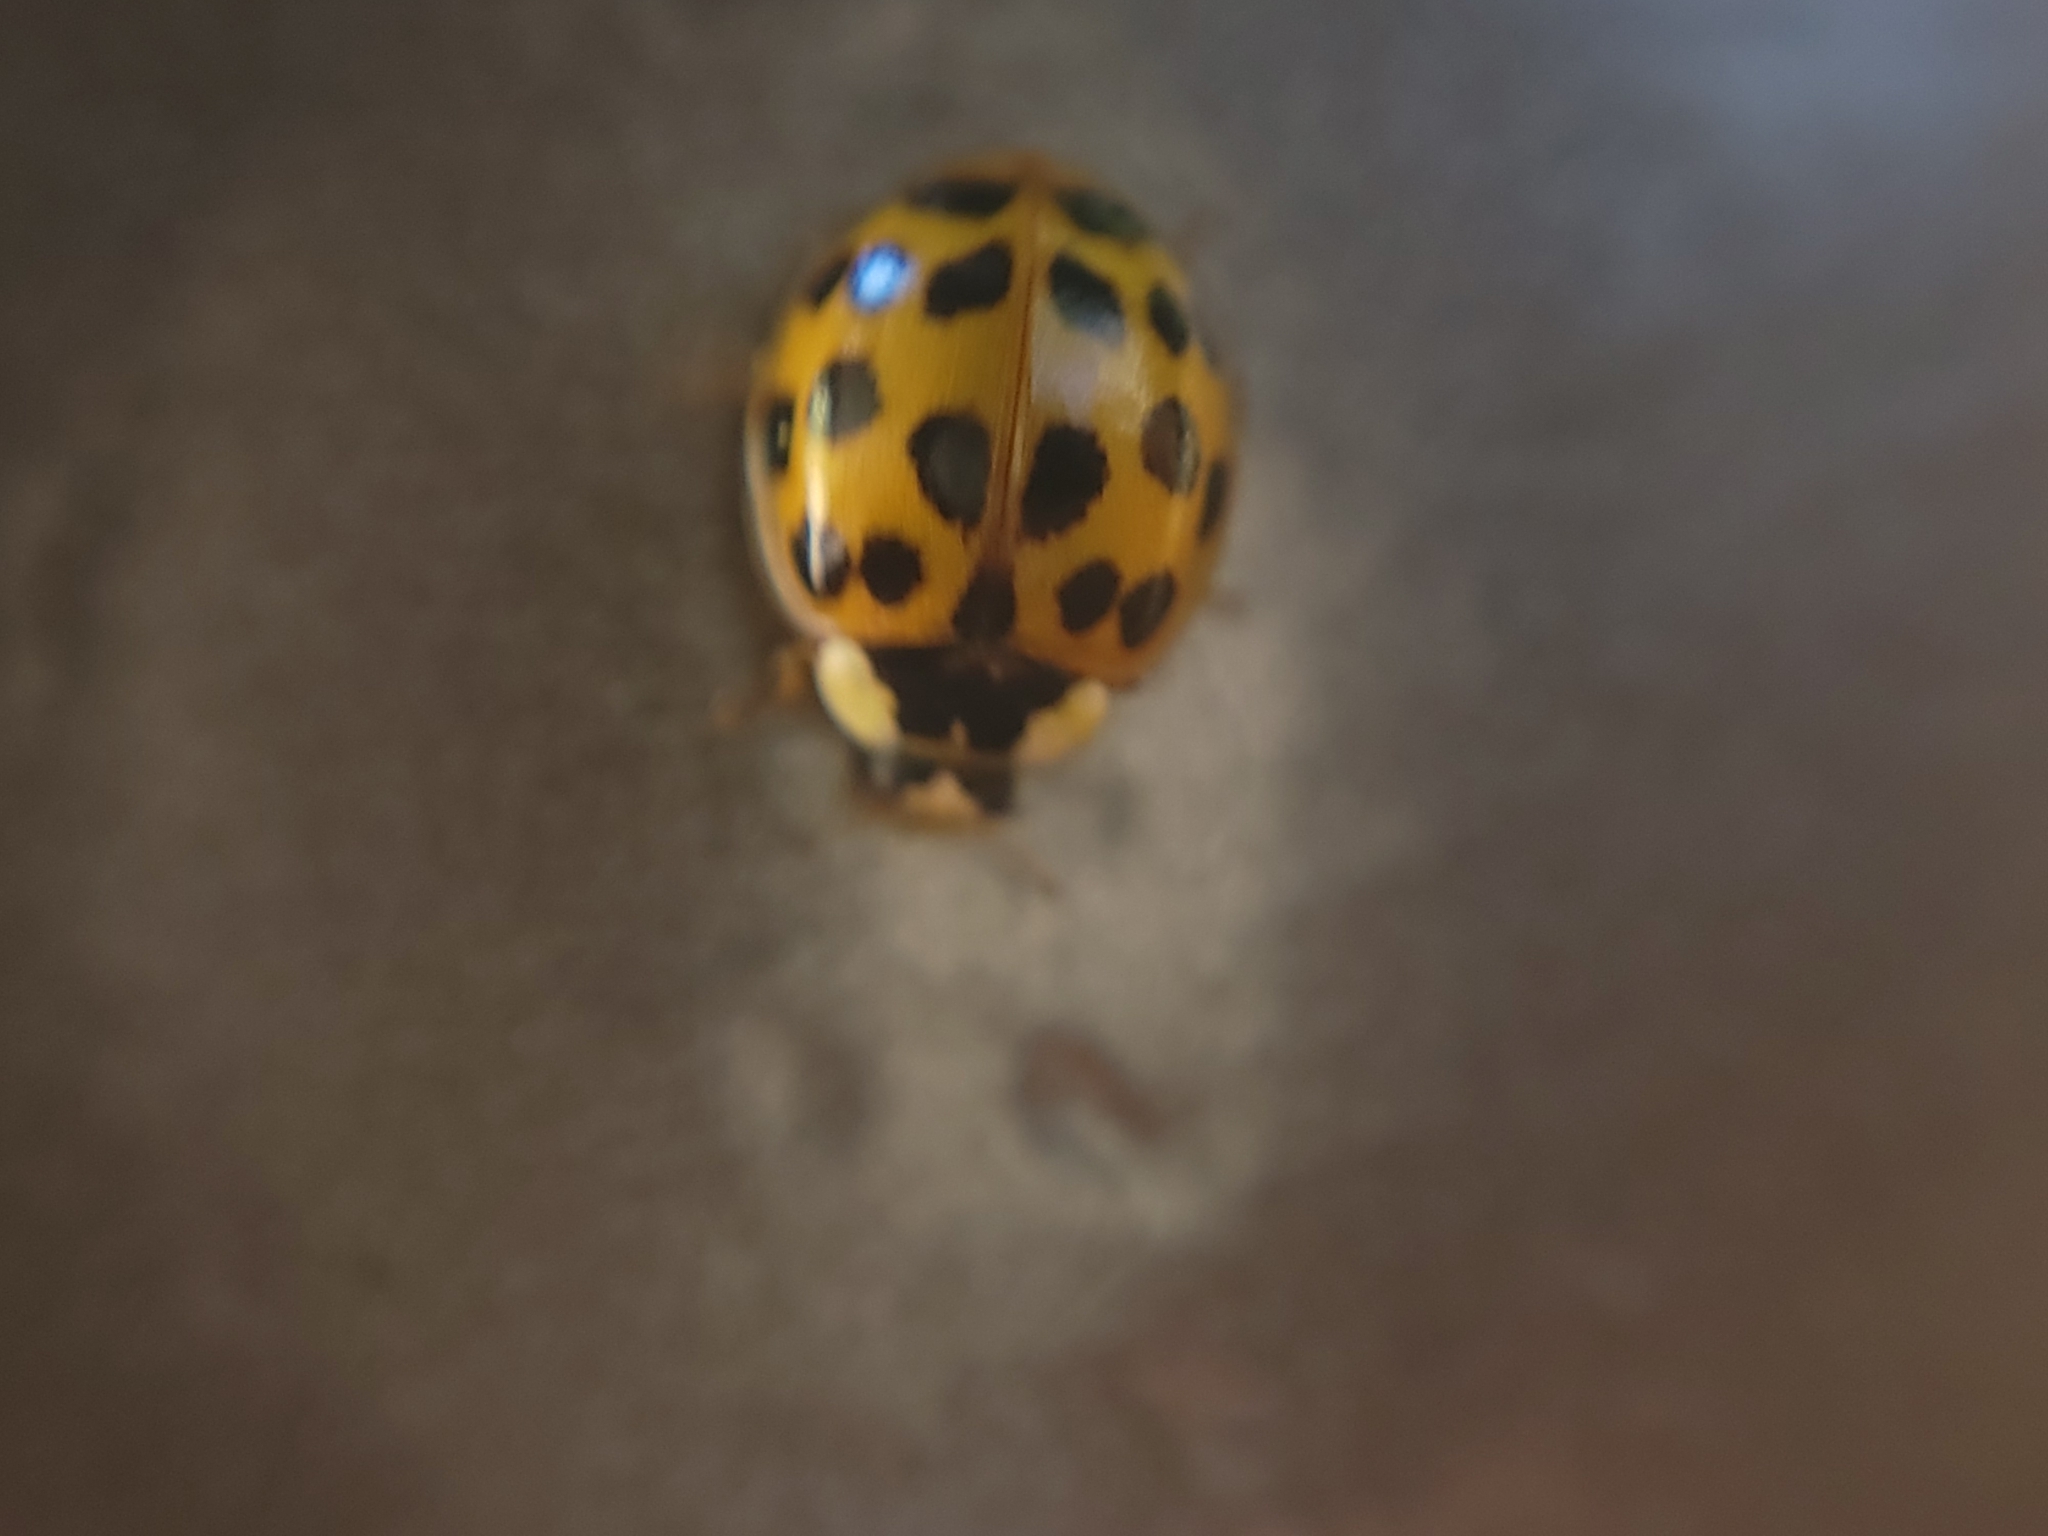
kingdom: Animalia
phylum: Arthropoda
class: Insecta
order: Coleoptera
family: Coccinellidae
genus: Harmonia
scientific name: Harmonia axyridis
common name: Harlequin ladybird
